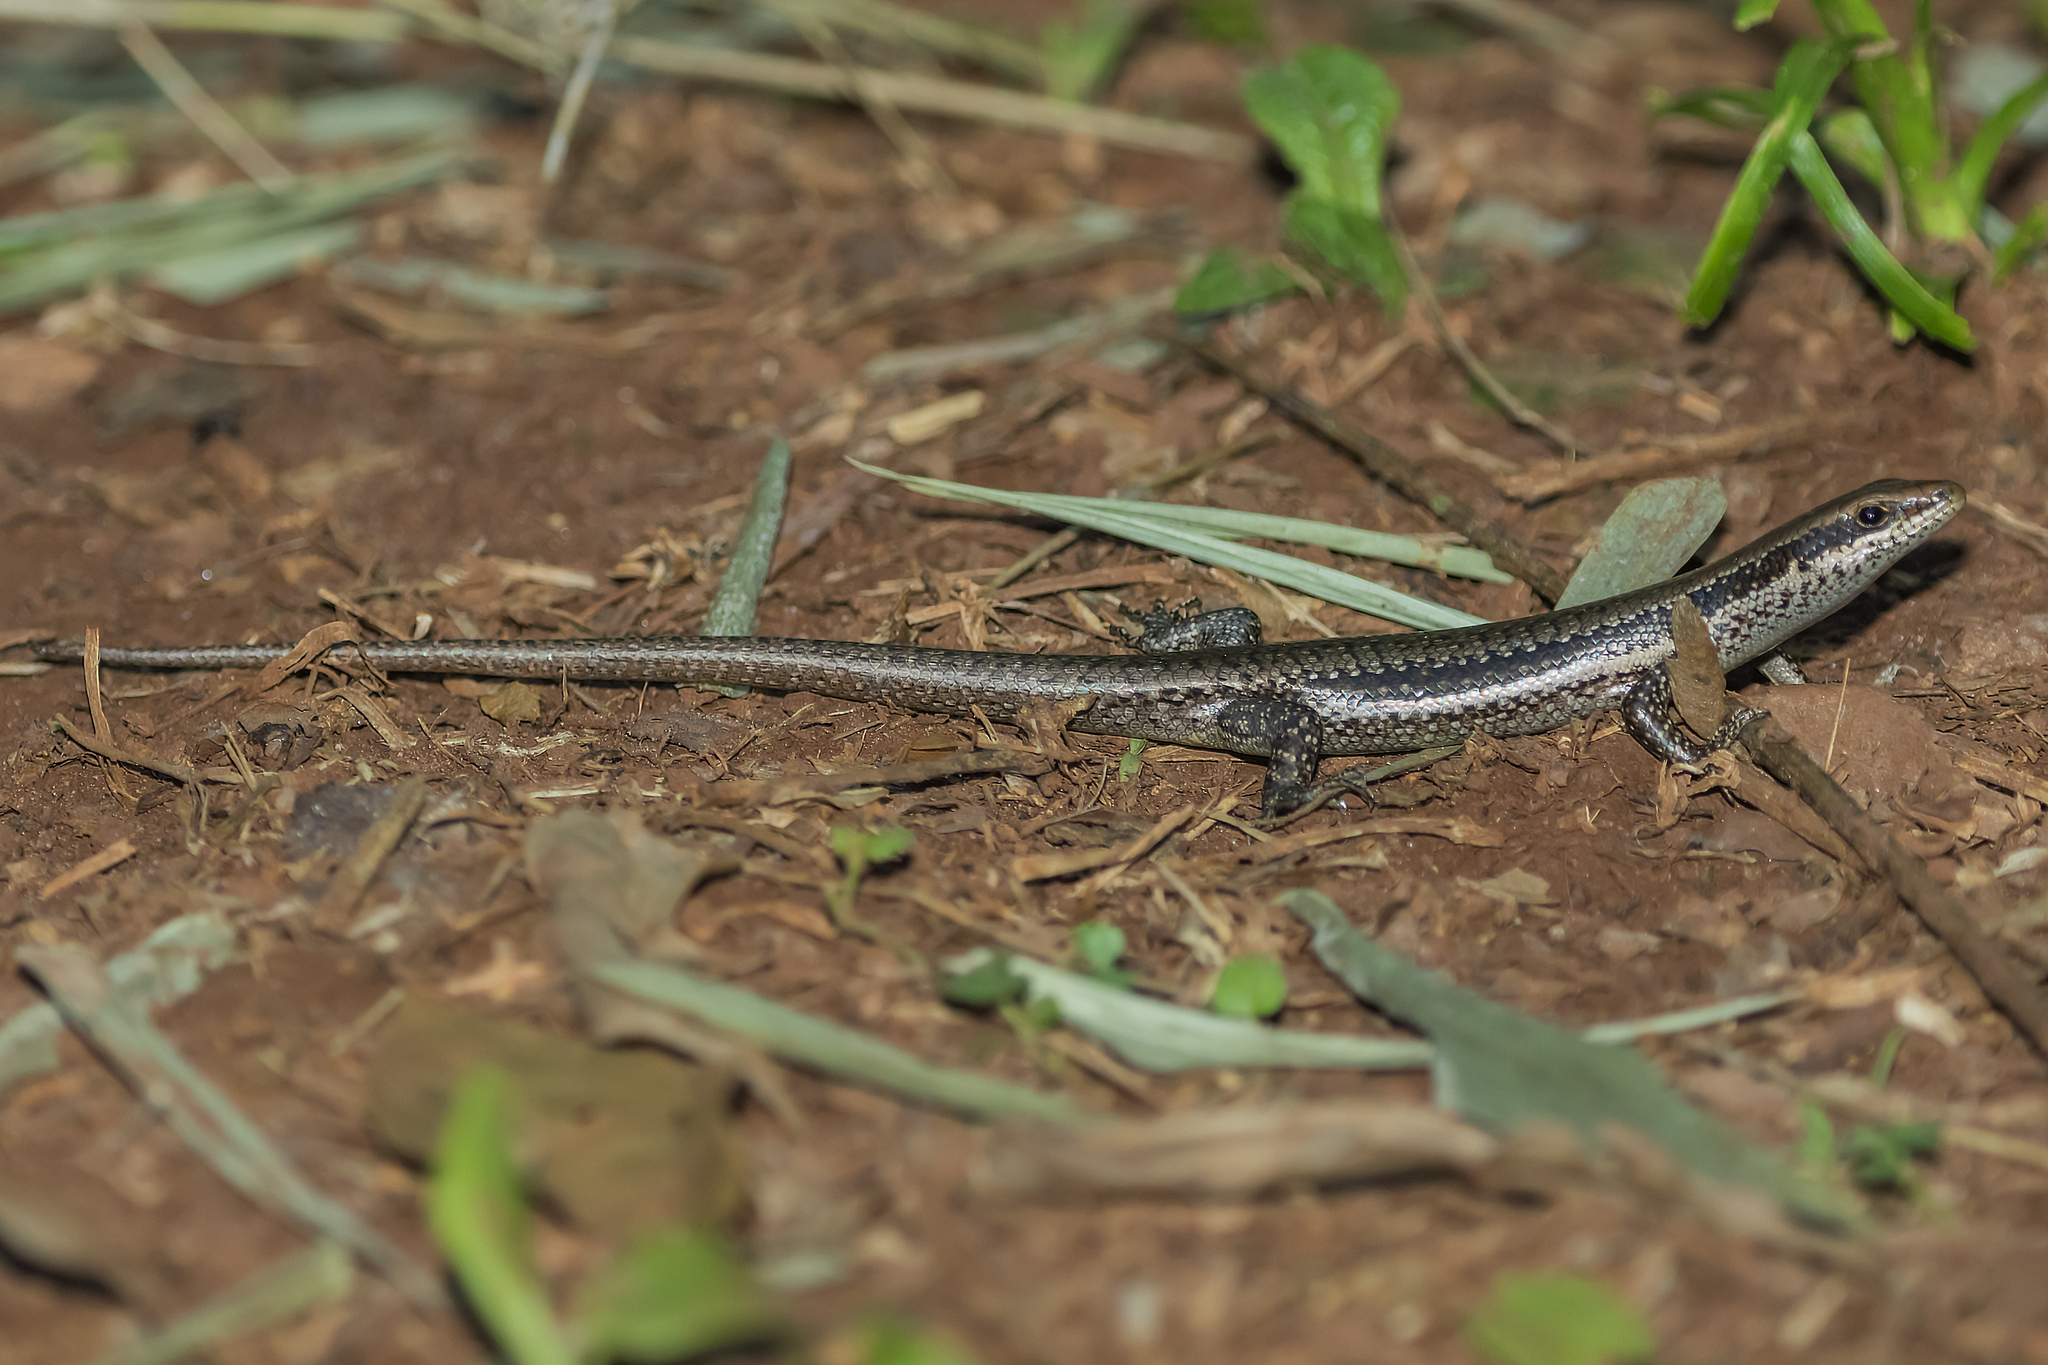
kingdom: Animalia
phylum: Chordata
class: Squamata
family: Scincidae
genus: Notomabuya
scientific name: Notomabuya frenata
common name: Cope's mabuya
